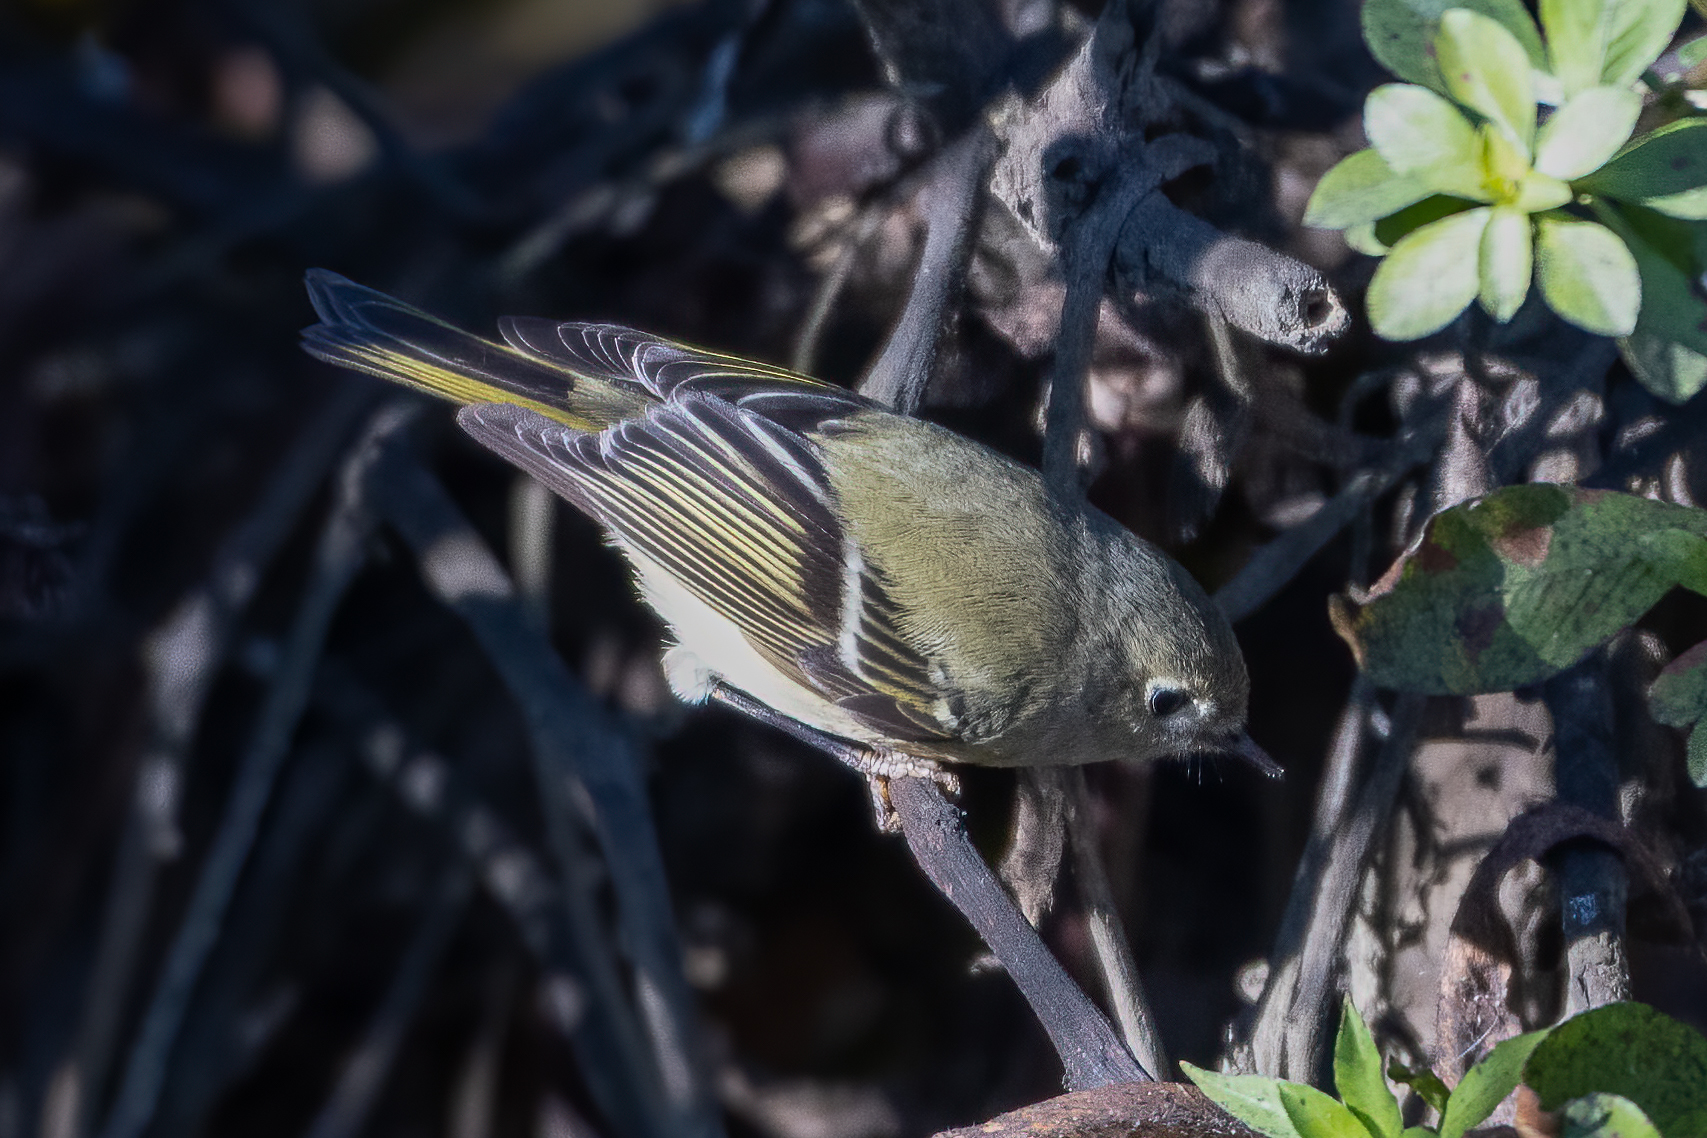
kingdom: Animalia
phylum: Chordata
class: Aves
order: Passeriformes
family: Regulidae
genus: Regulus
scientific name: Regulus calendula
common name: Ruby-crowned kinglet
